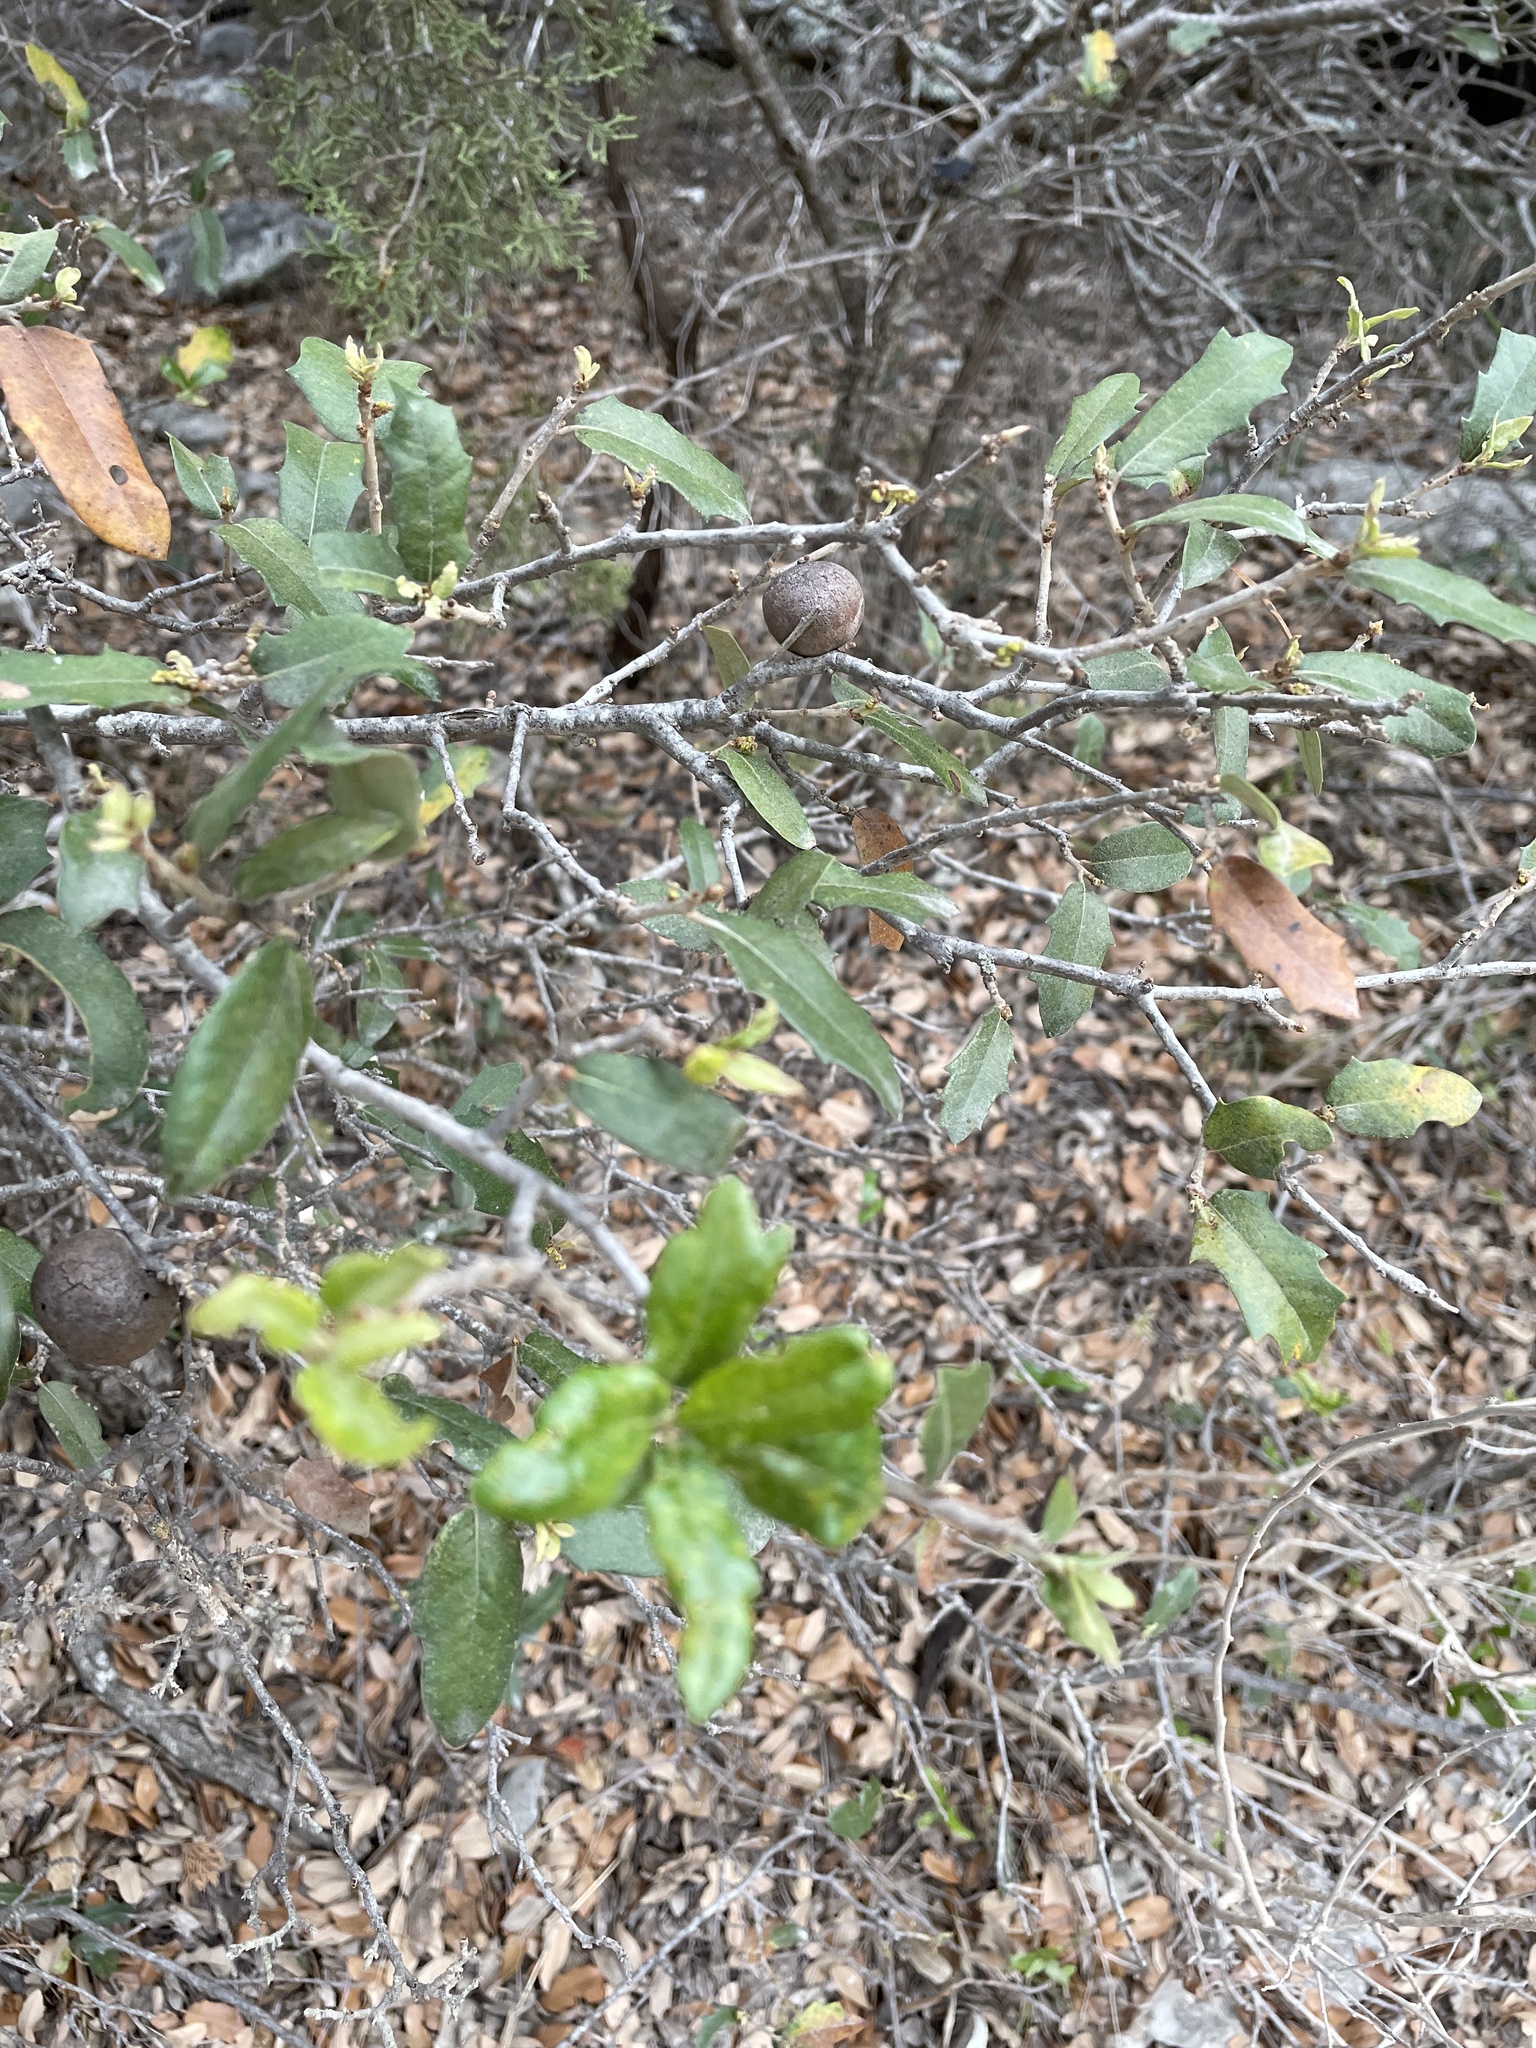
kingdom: Animalia
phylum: Arthropoda
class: Insecta
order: Hymenoptera
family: Cynipidae
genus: Disholcaspis
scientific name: Disholcaspis
